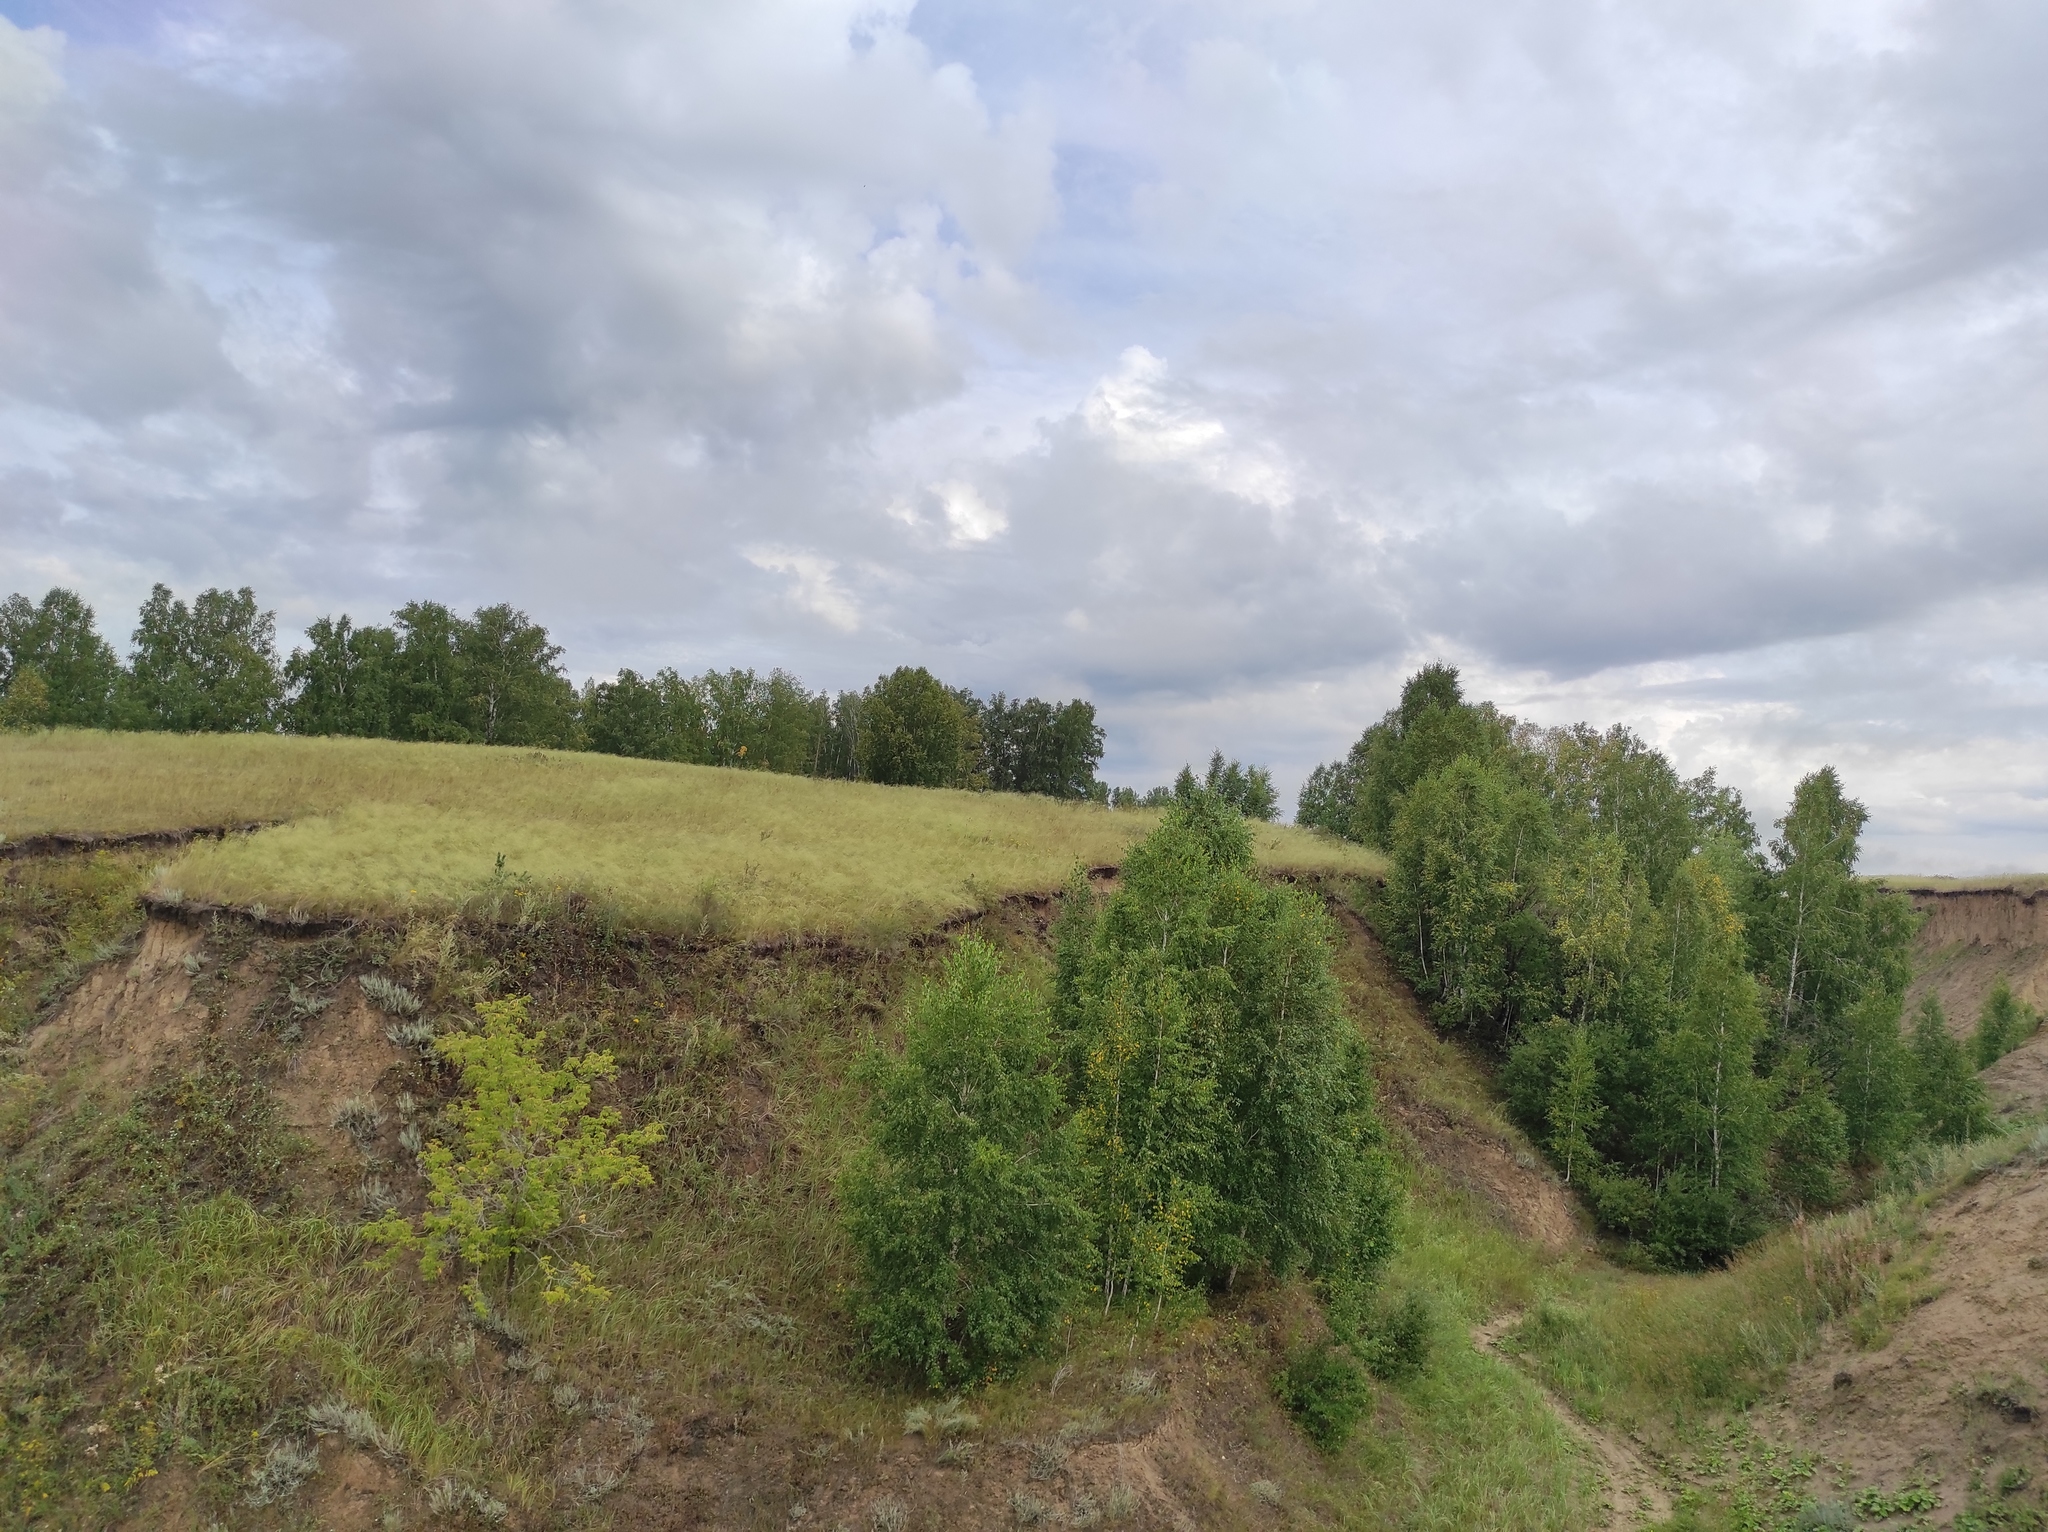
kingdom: Plantae
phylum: Tracheophyta
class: Magnoliopsida
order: Fagales
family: Betulaceae
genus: Betula
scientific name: Betula pendula
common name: Silver birch
